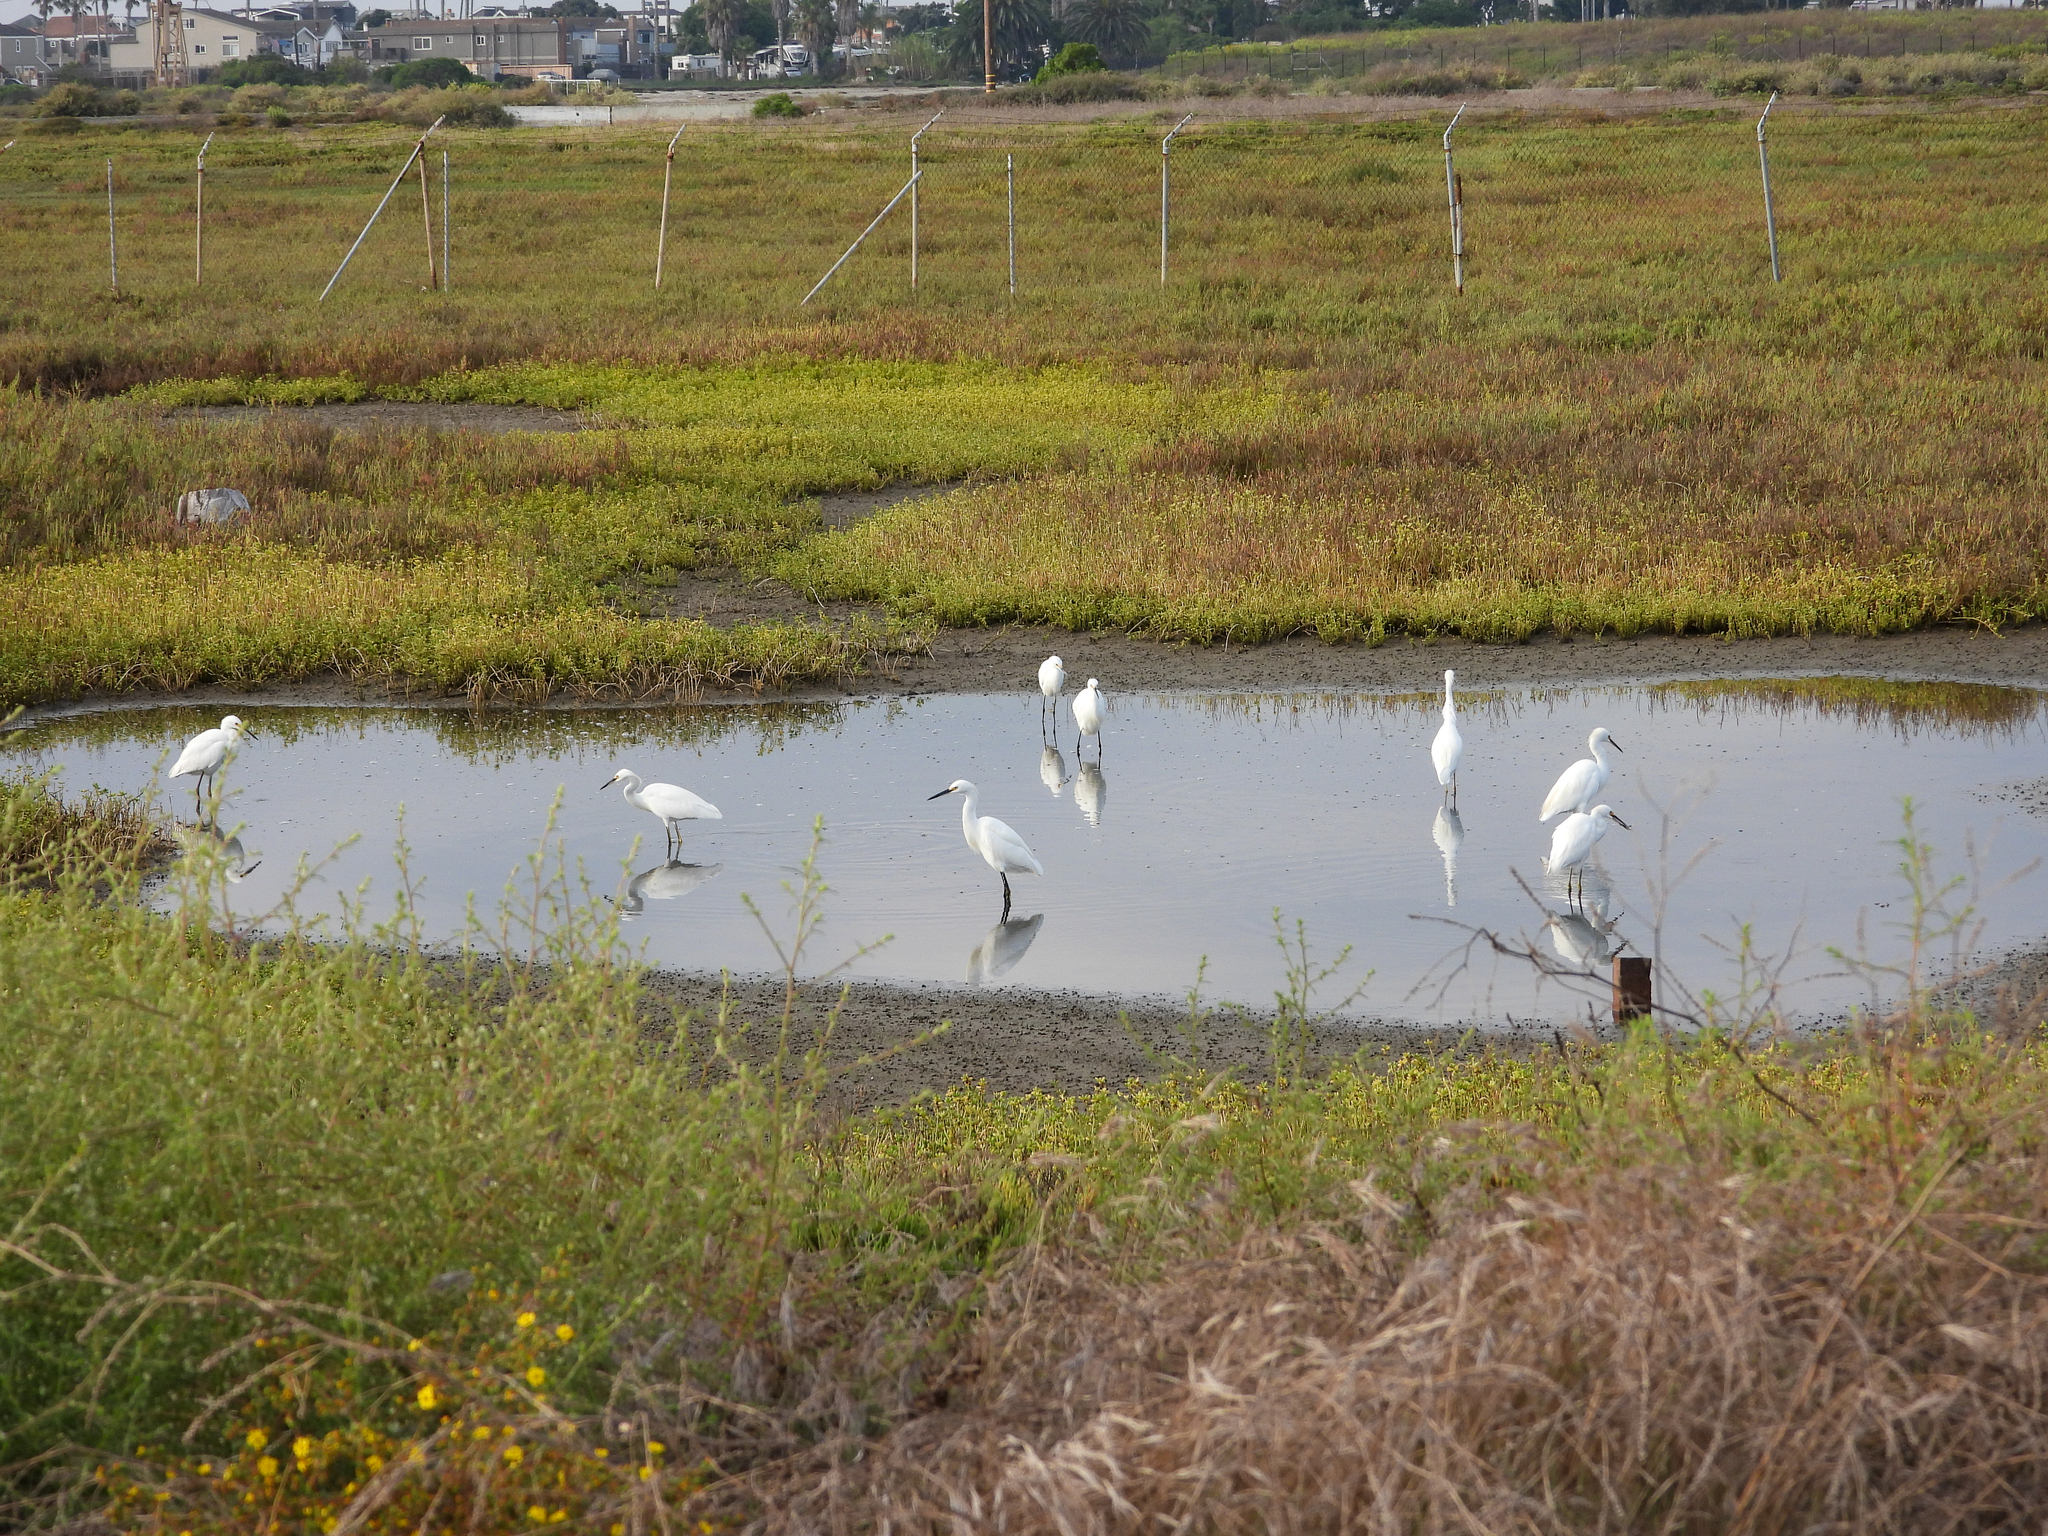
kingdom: Animalia
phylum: Chordata
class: Aves
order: Pelecaniformes
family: Ardeidae
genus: Egretta
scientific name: Egretta thula
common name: Snowy egret
